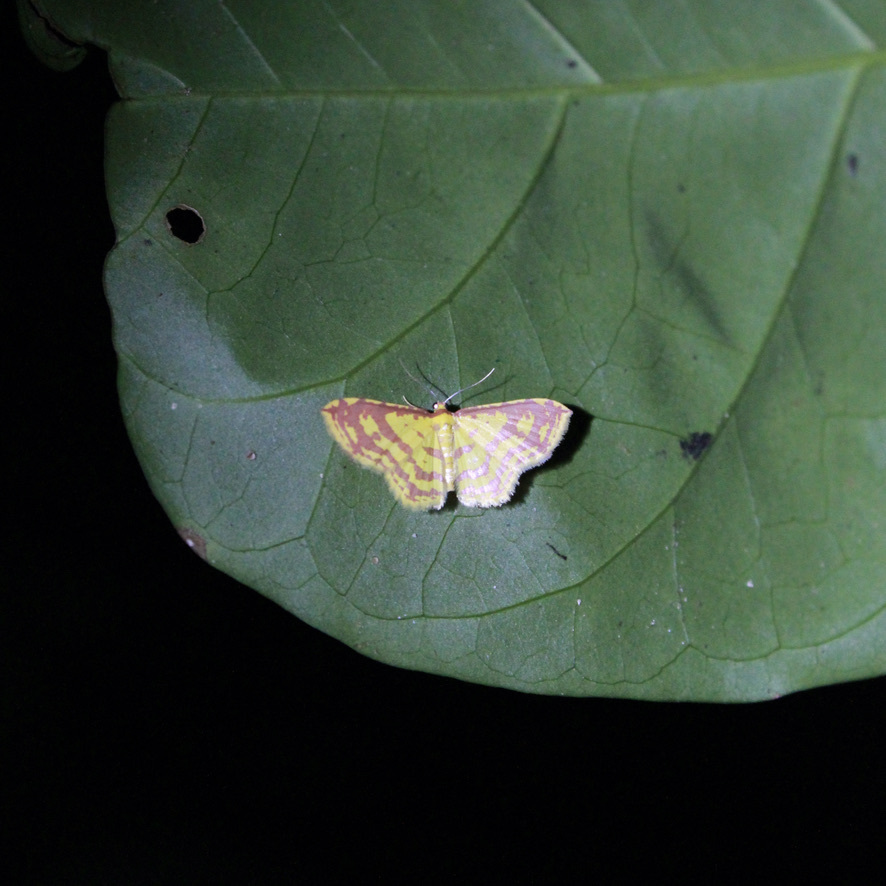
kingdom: Animalia
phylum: Arthropoda
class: Insecta
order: Lepidoptera
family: Geometridae
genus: Eois
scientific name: Eois binaria
